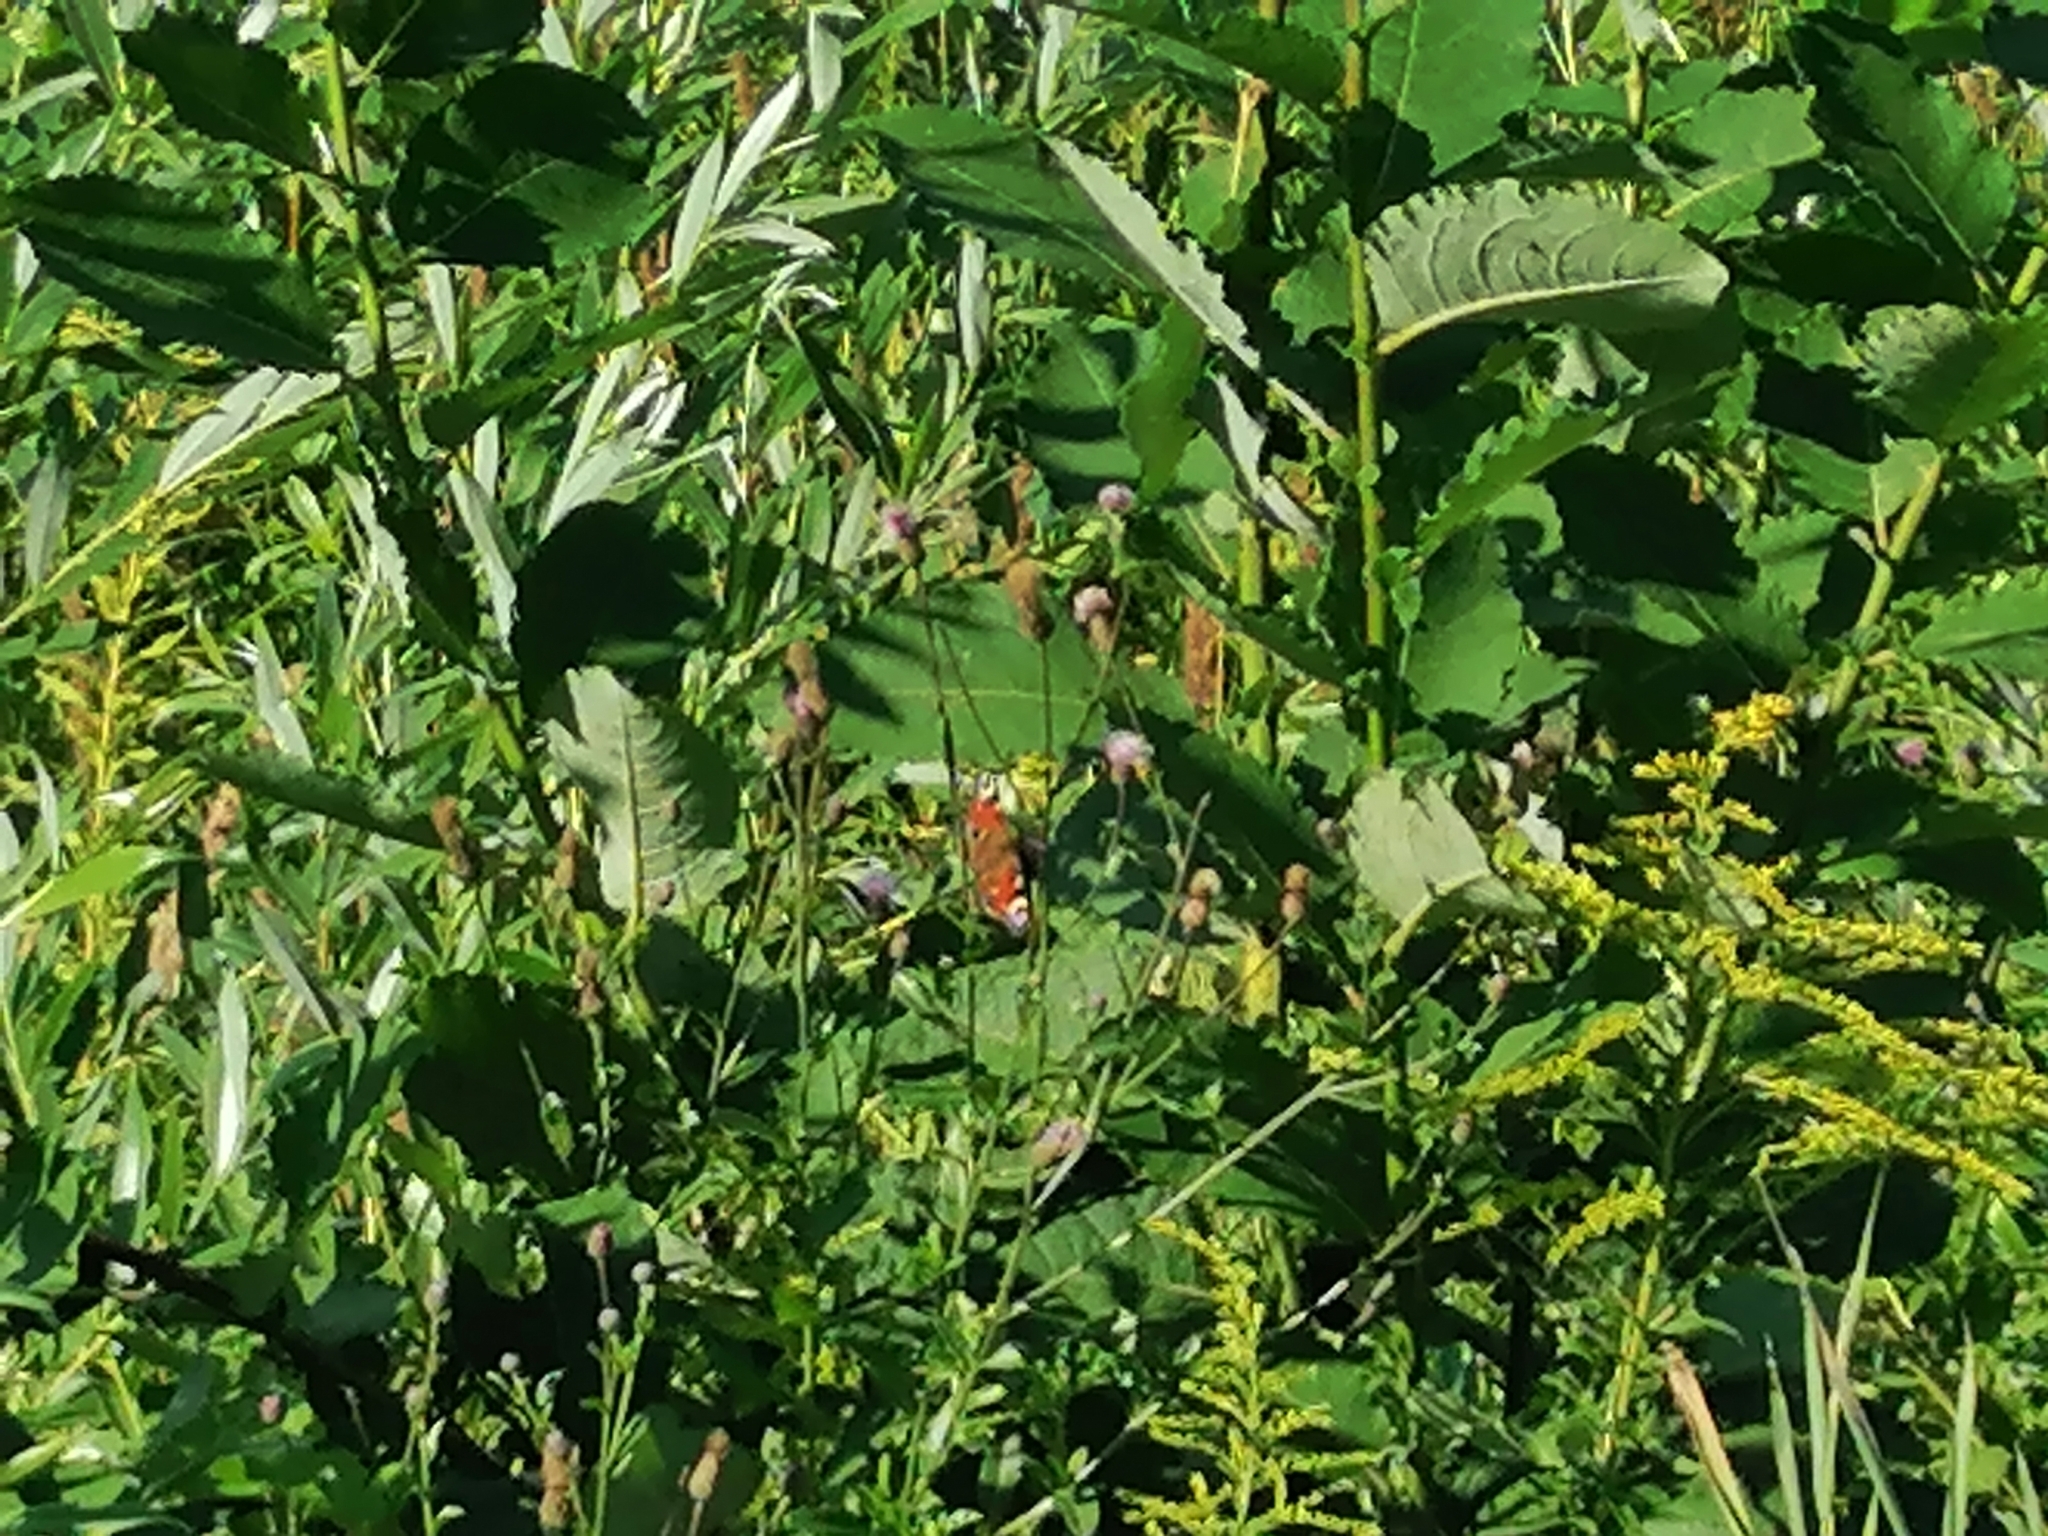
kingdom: Animalia
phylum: Arthropoda
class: Insecta
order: Lepidoptera
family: Nymphalidae
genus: Aglais
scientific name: Aglais io
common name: Peacock
